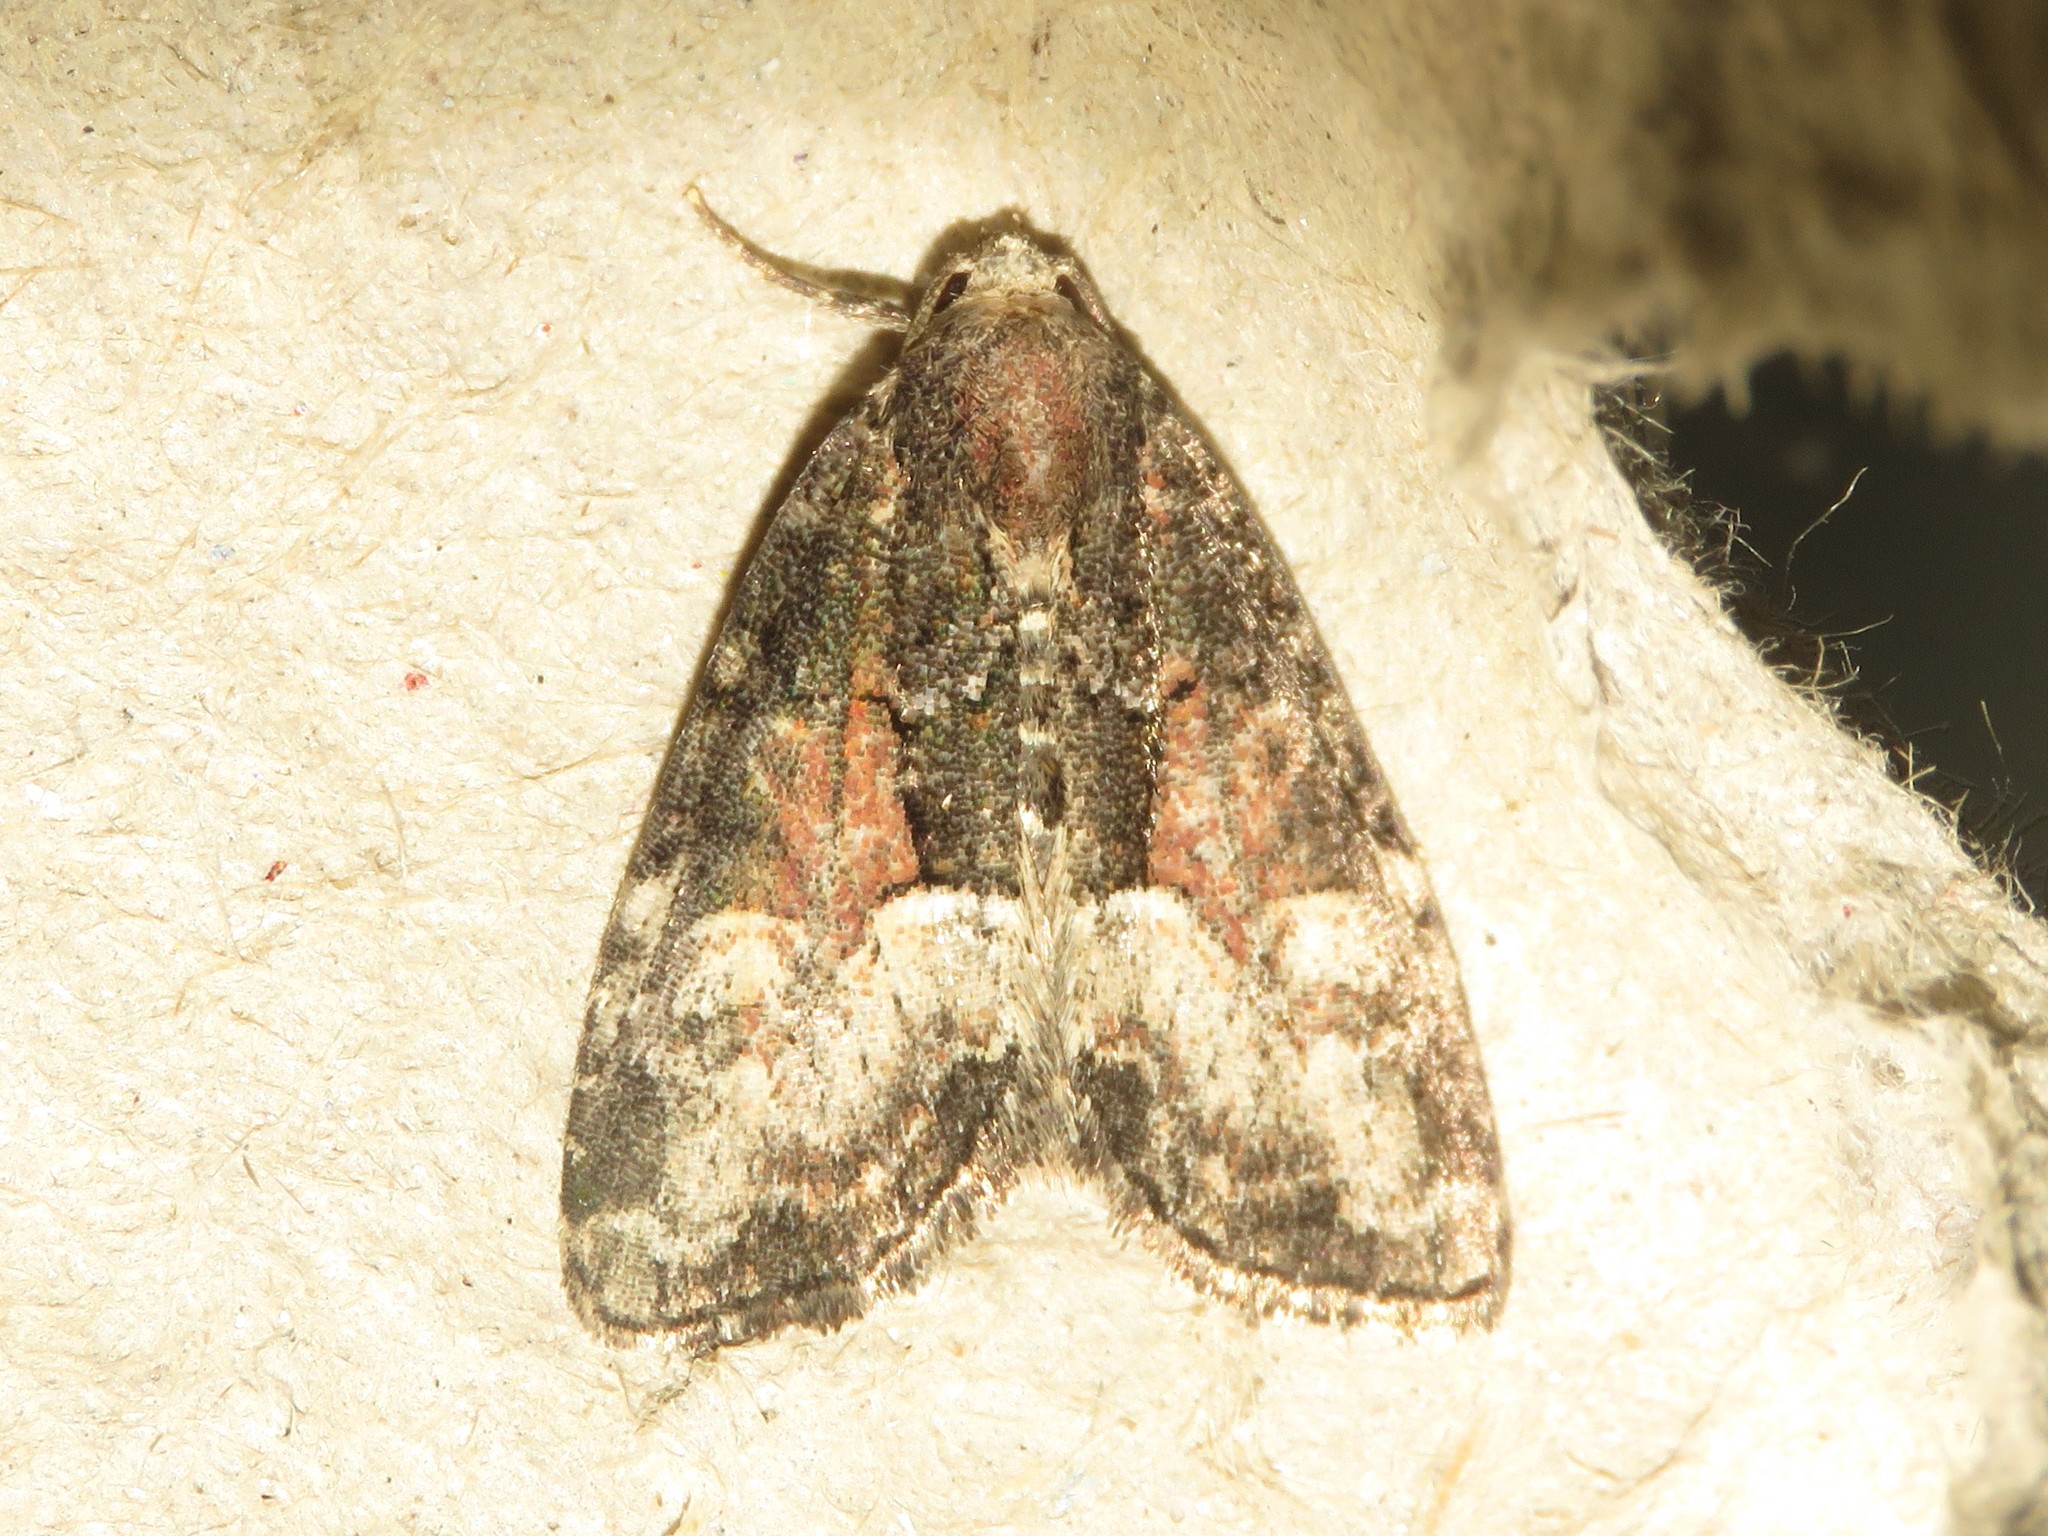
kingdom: Animalia
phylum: Arthropoda
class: Insecta
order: Lepidoptera
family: Noctuidae
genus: Neoligia
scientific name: Neoligia subjuncta
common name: Connected brocade
